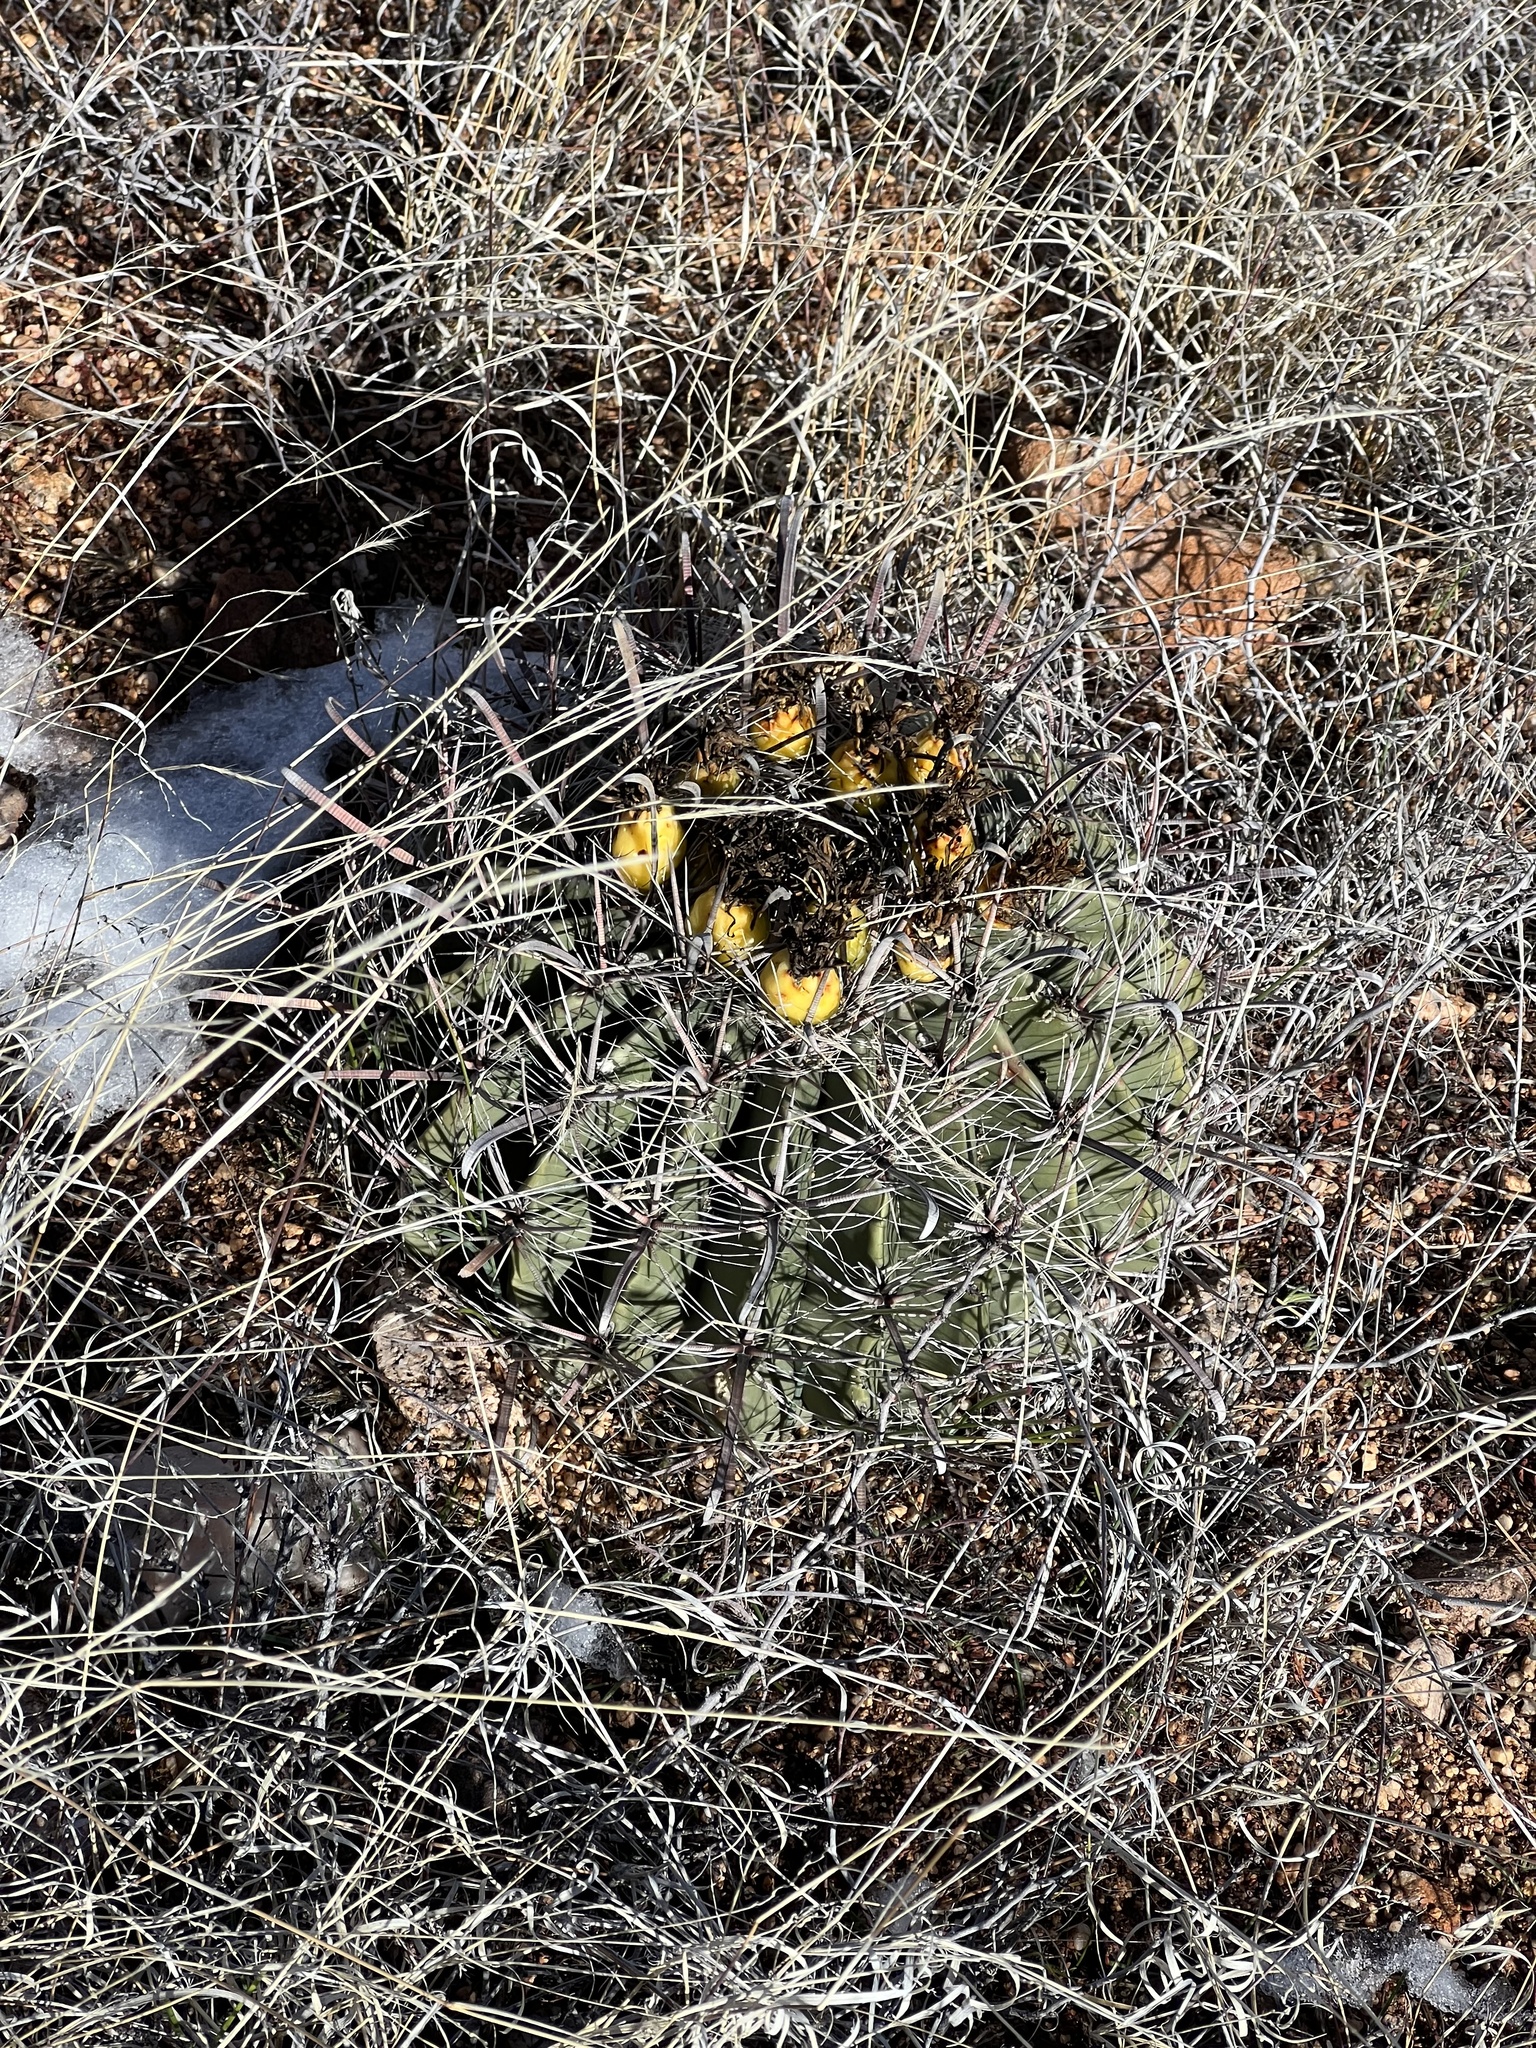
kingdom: Plantae
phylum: Tracheophyta
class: Magnoliopsida
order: Caryophyllales
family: Cactaceae
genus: Ferocactus
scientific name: Ferocactus wislizeni
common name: Candy barrel cactus
